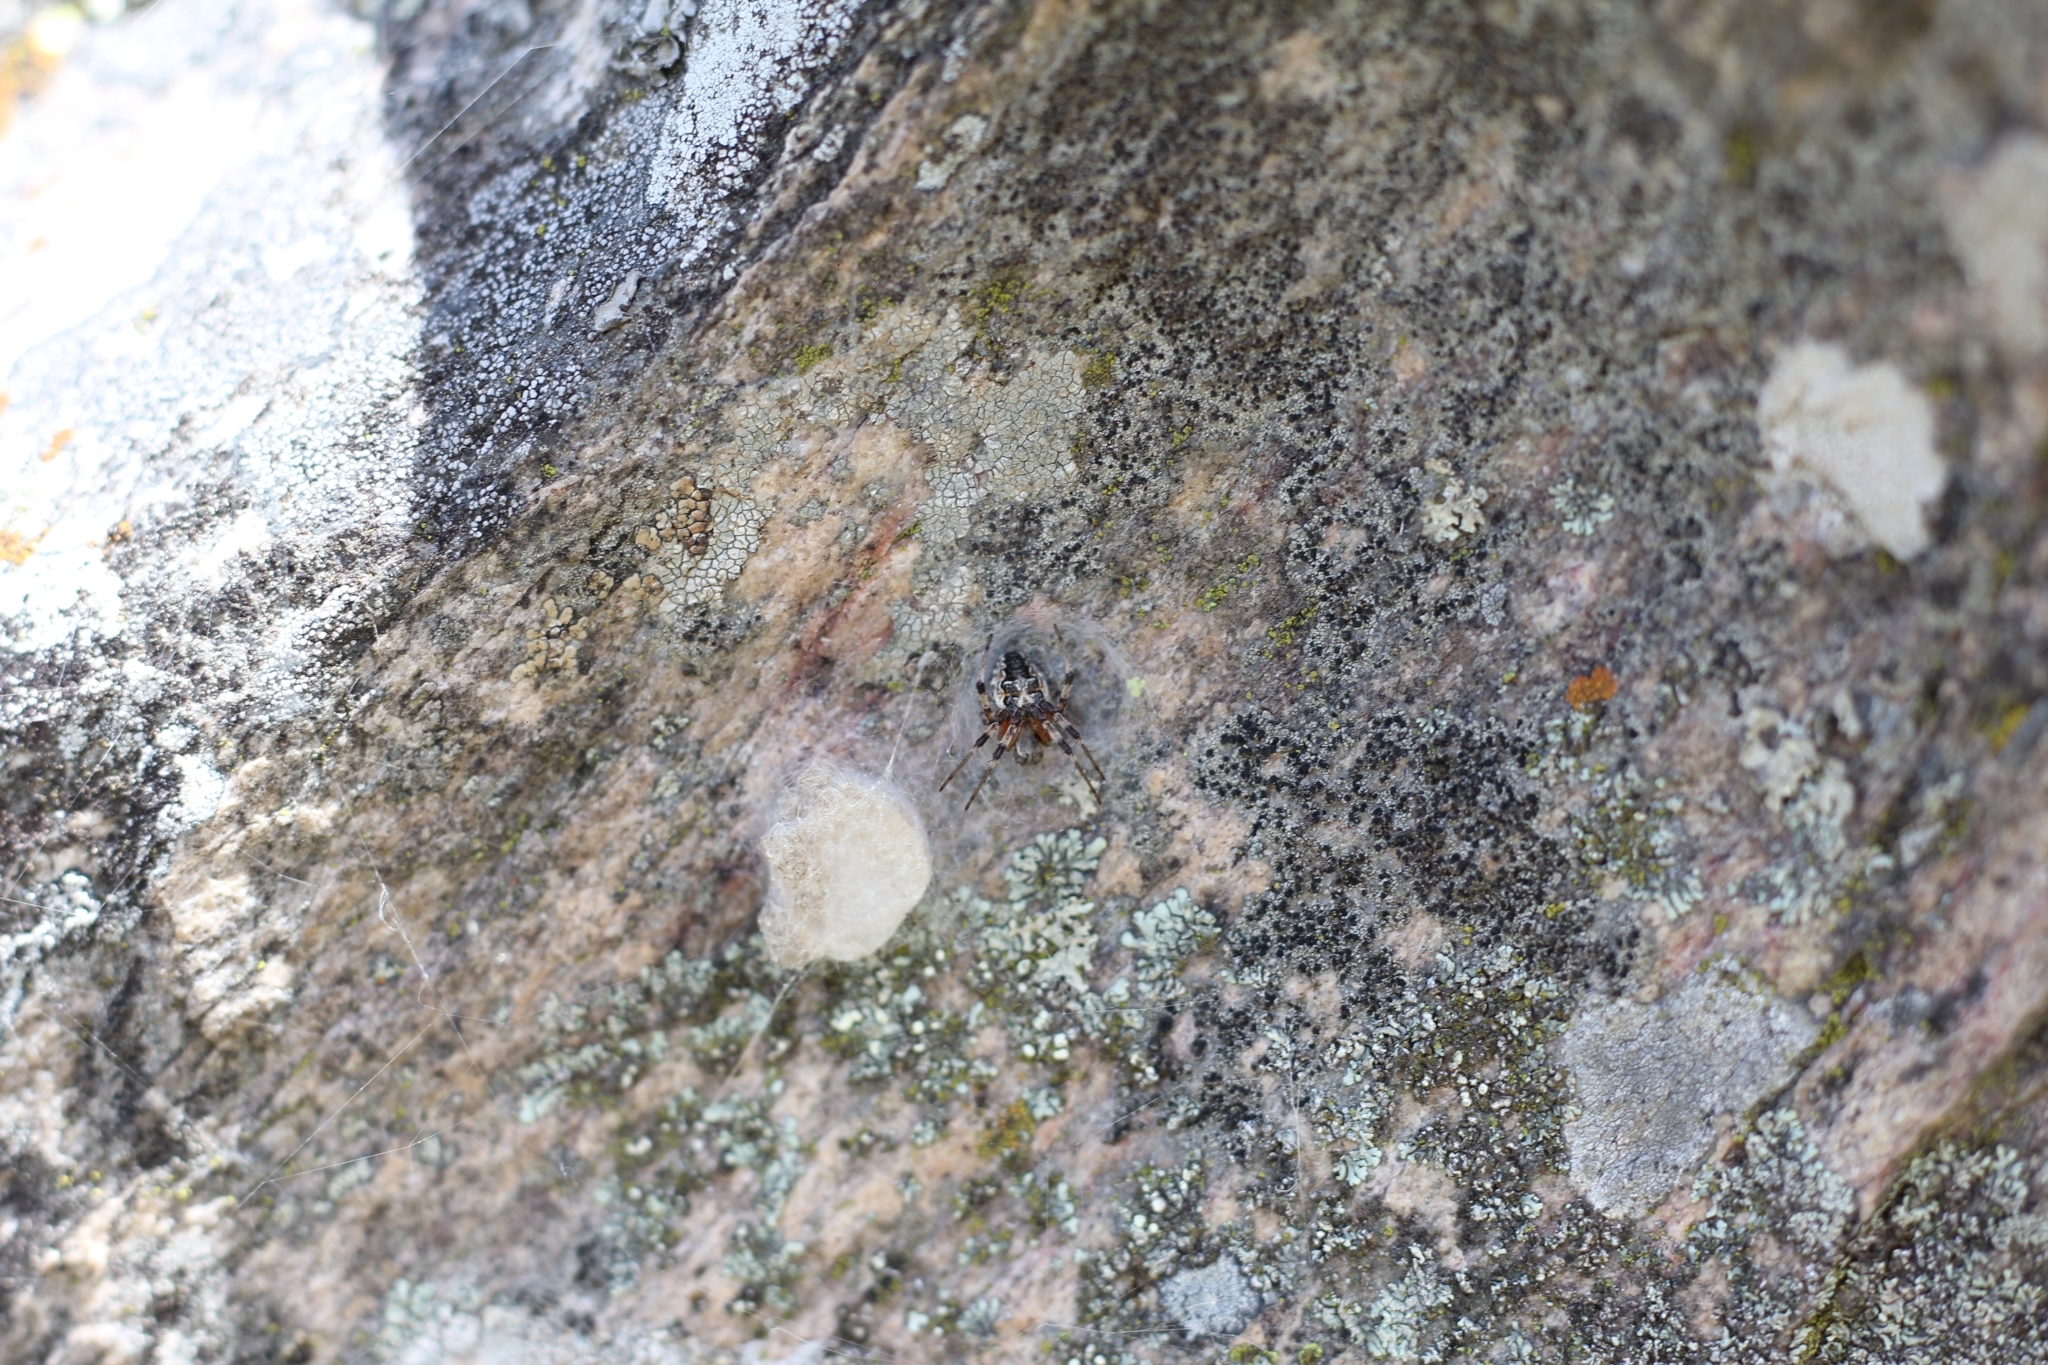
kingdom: Animalia
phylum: Arthropoda
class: Arachnida
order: Araneae
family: Araneidae
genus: Metepeira
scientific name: Metepeira
